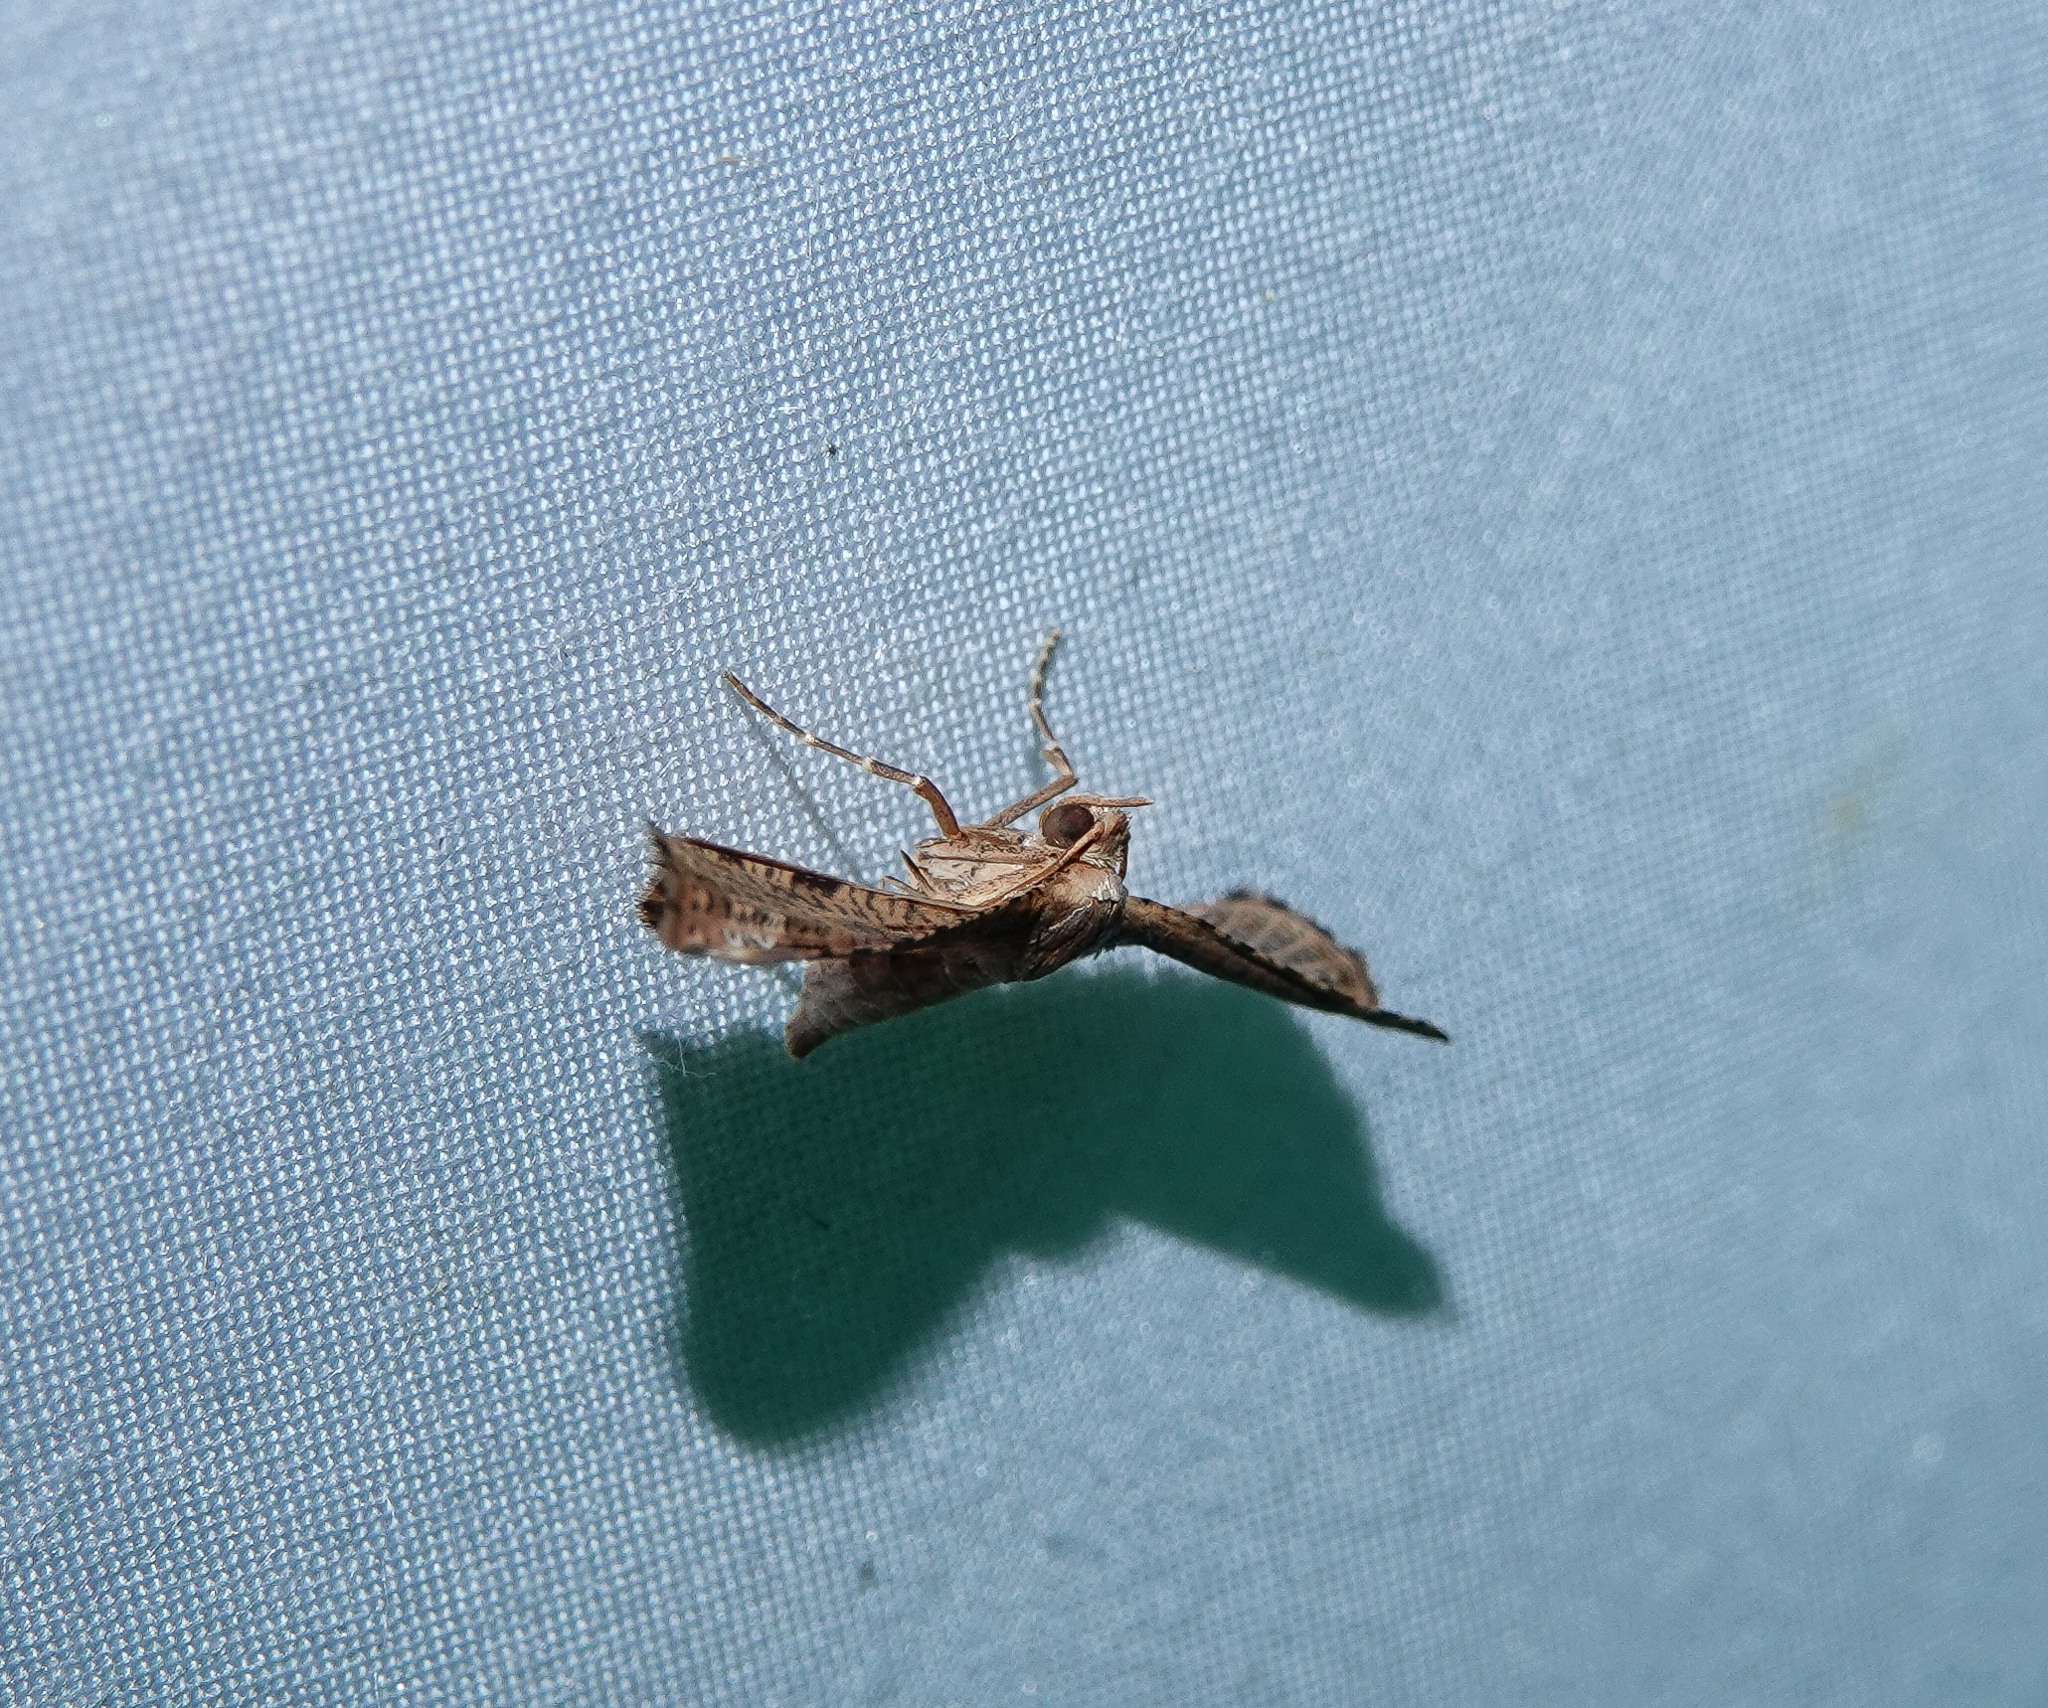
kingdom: Animalia
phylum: Arthropoda
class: Insecta
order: Lepidoptera
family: Thyrididae
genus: Hypolamprus
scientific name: Hypolamprus inductalis
